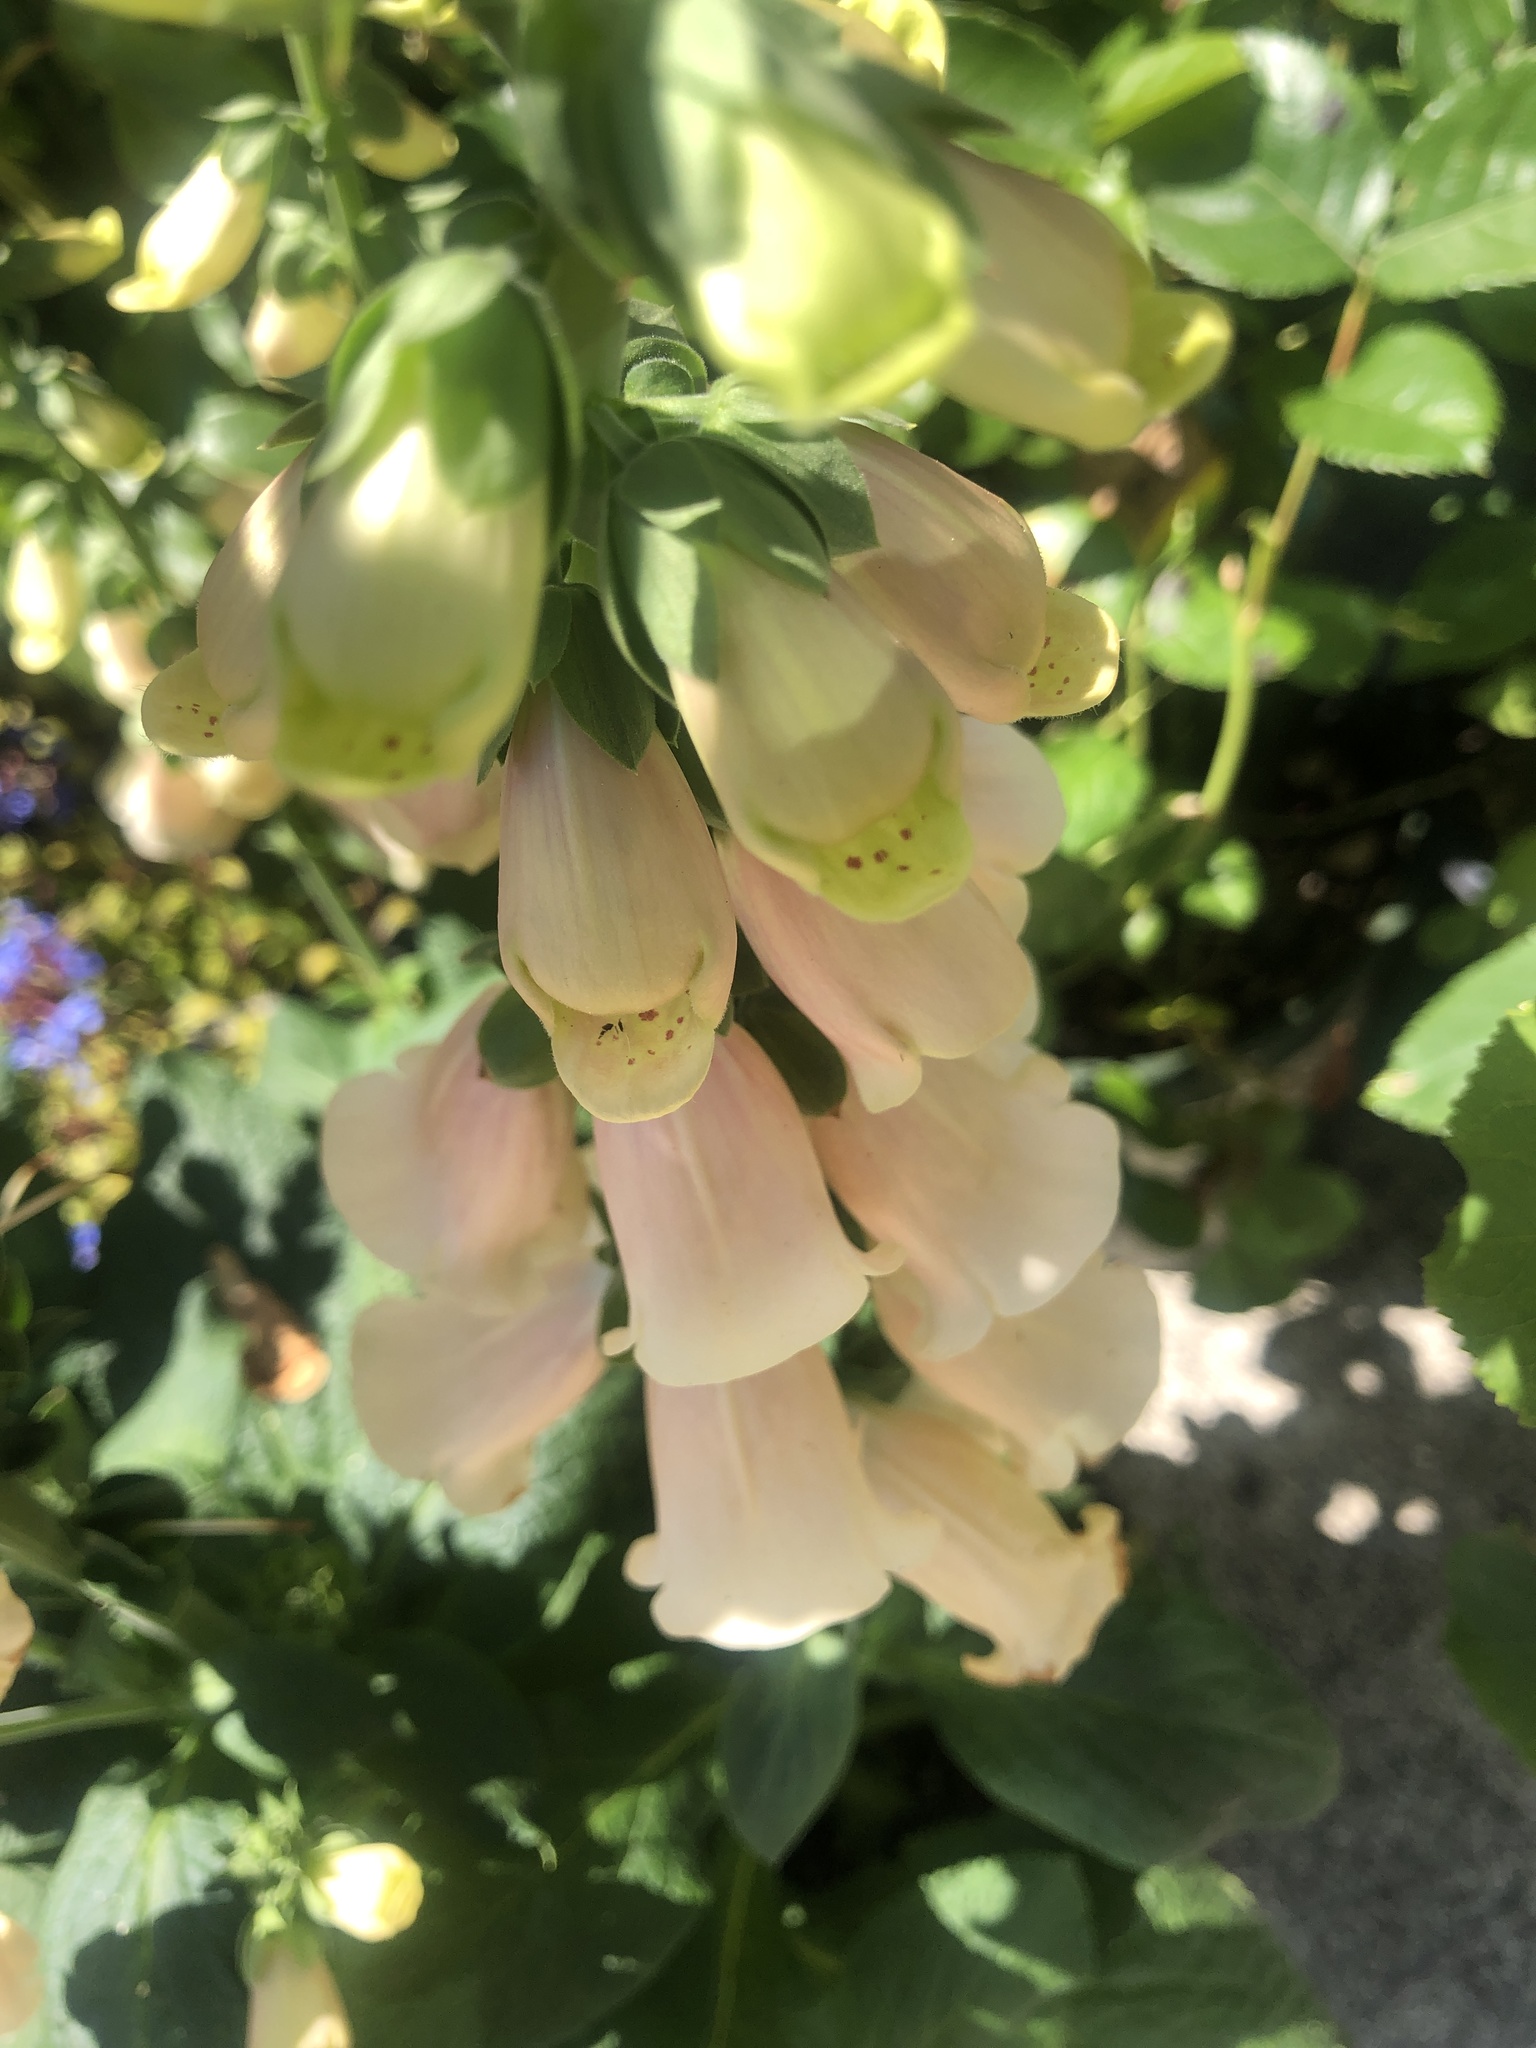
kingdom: Plantae
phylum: Tracheophyta
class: Magnoliopsida
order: Lamiales
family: Plantaginaceae
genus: Digitalis
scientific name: Digitalis purpurea
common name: Foxglove
